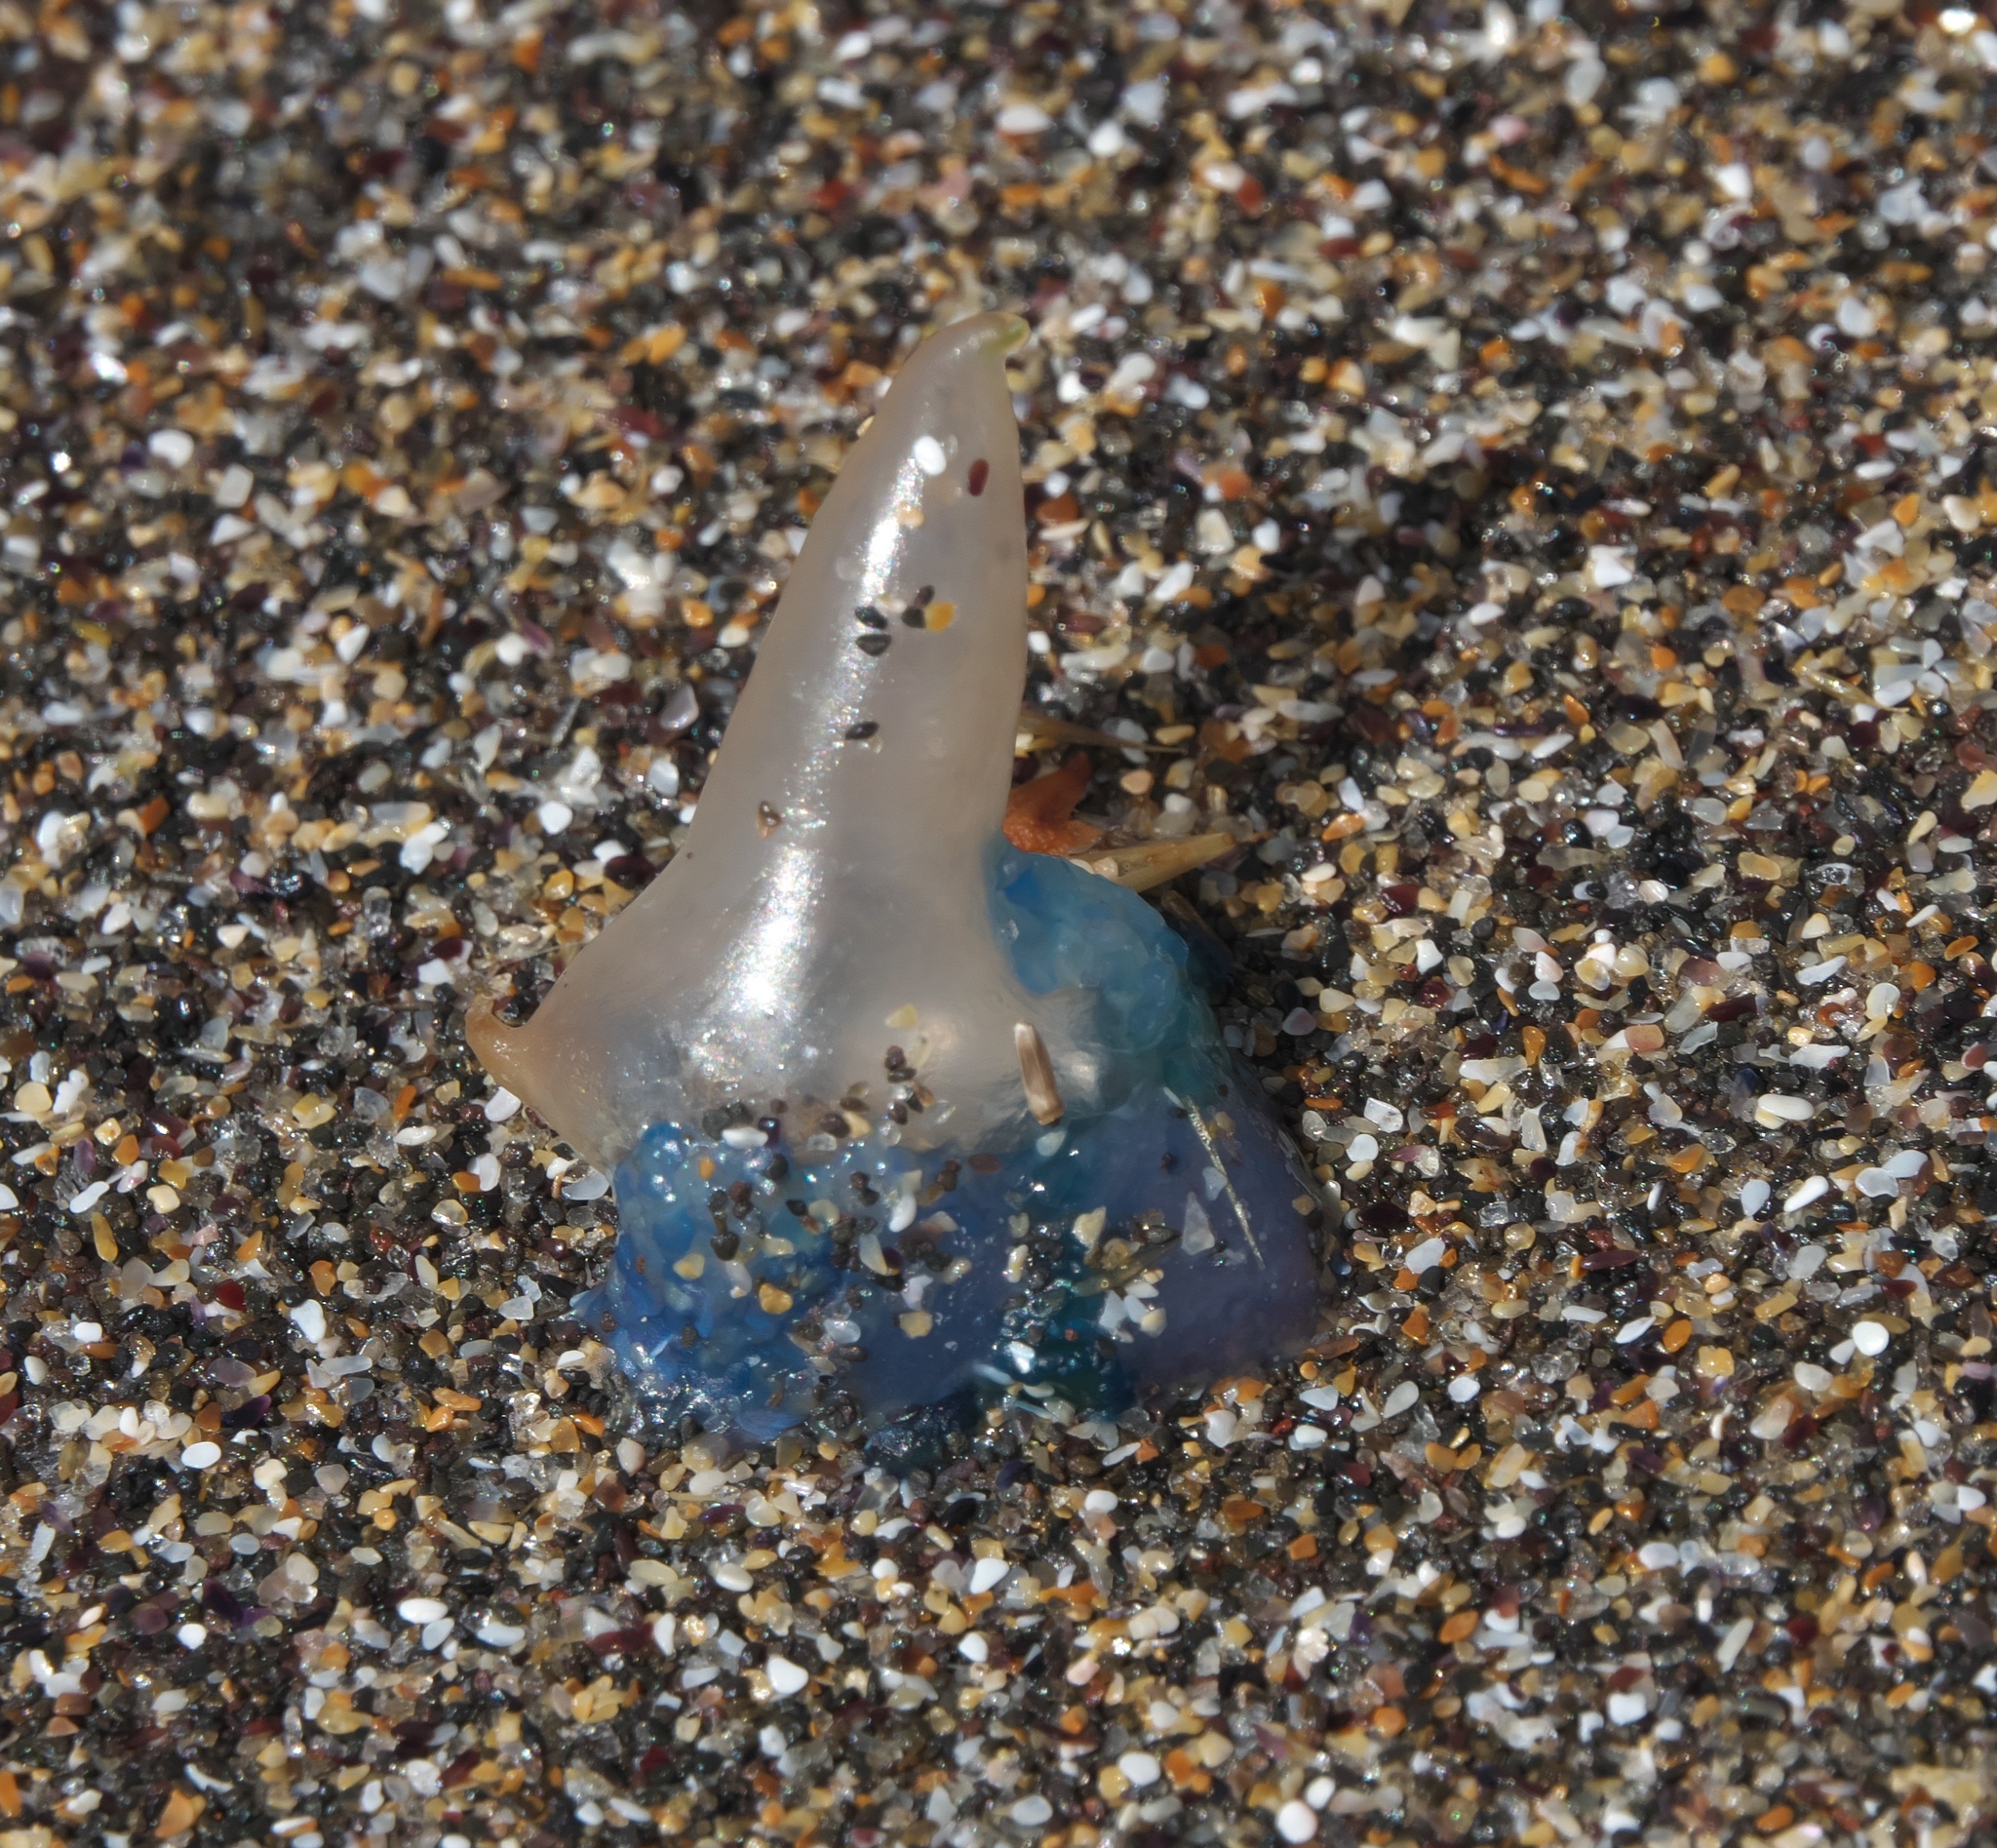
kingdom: Animalia
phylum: Cnidaria
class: Hydrozoa
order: Siphonophorae
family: Physaliidae
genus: Physalia
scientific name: Physalia physalis
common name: Portuguese man-of-war
